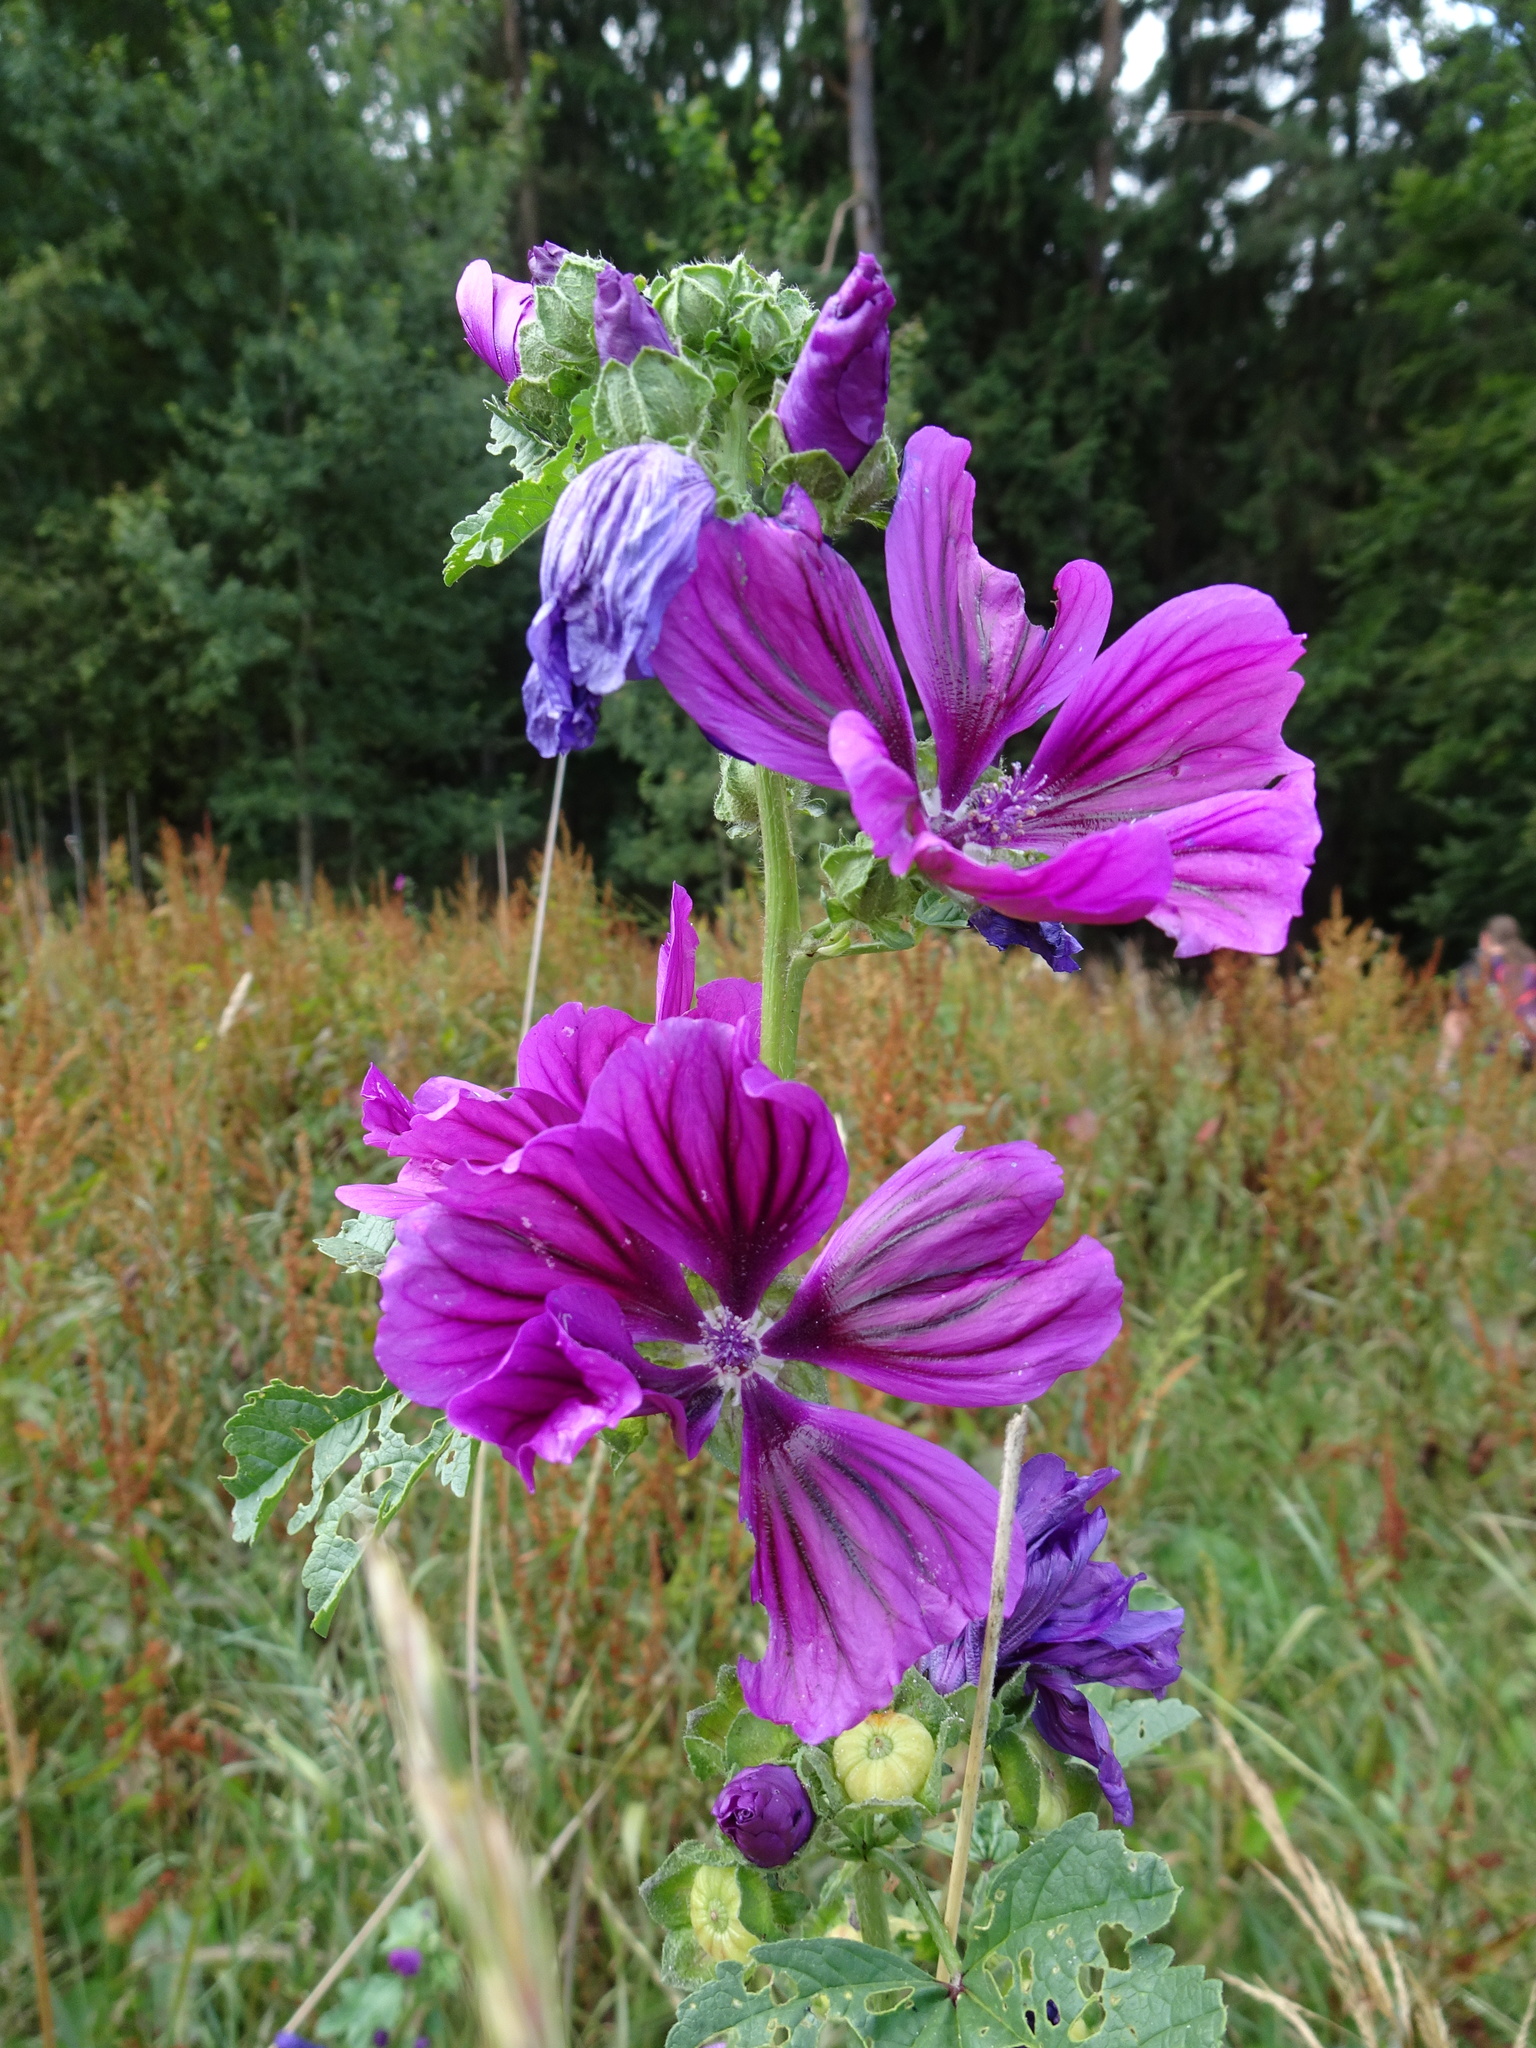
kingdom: Plantae
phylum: Tracheophyta
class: Magnoliopsida
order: Malvales
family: Malvaceae
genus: Malva
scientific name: Malva sylvestris
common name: Common mallow
